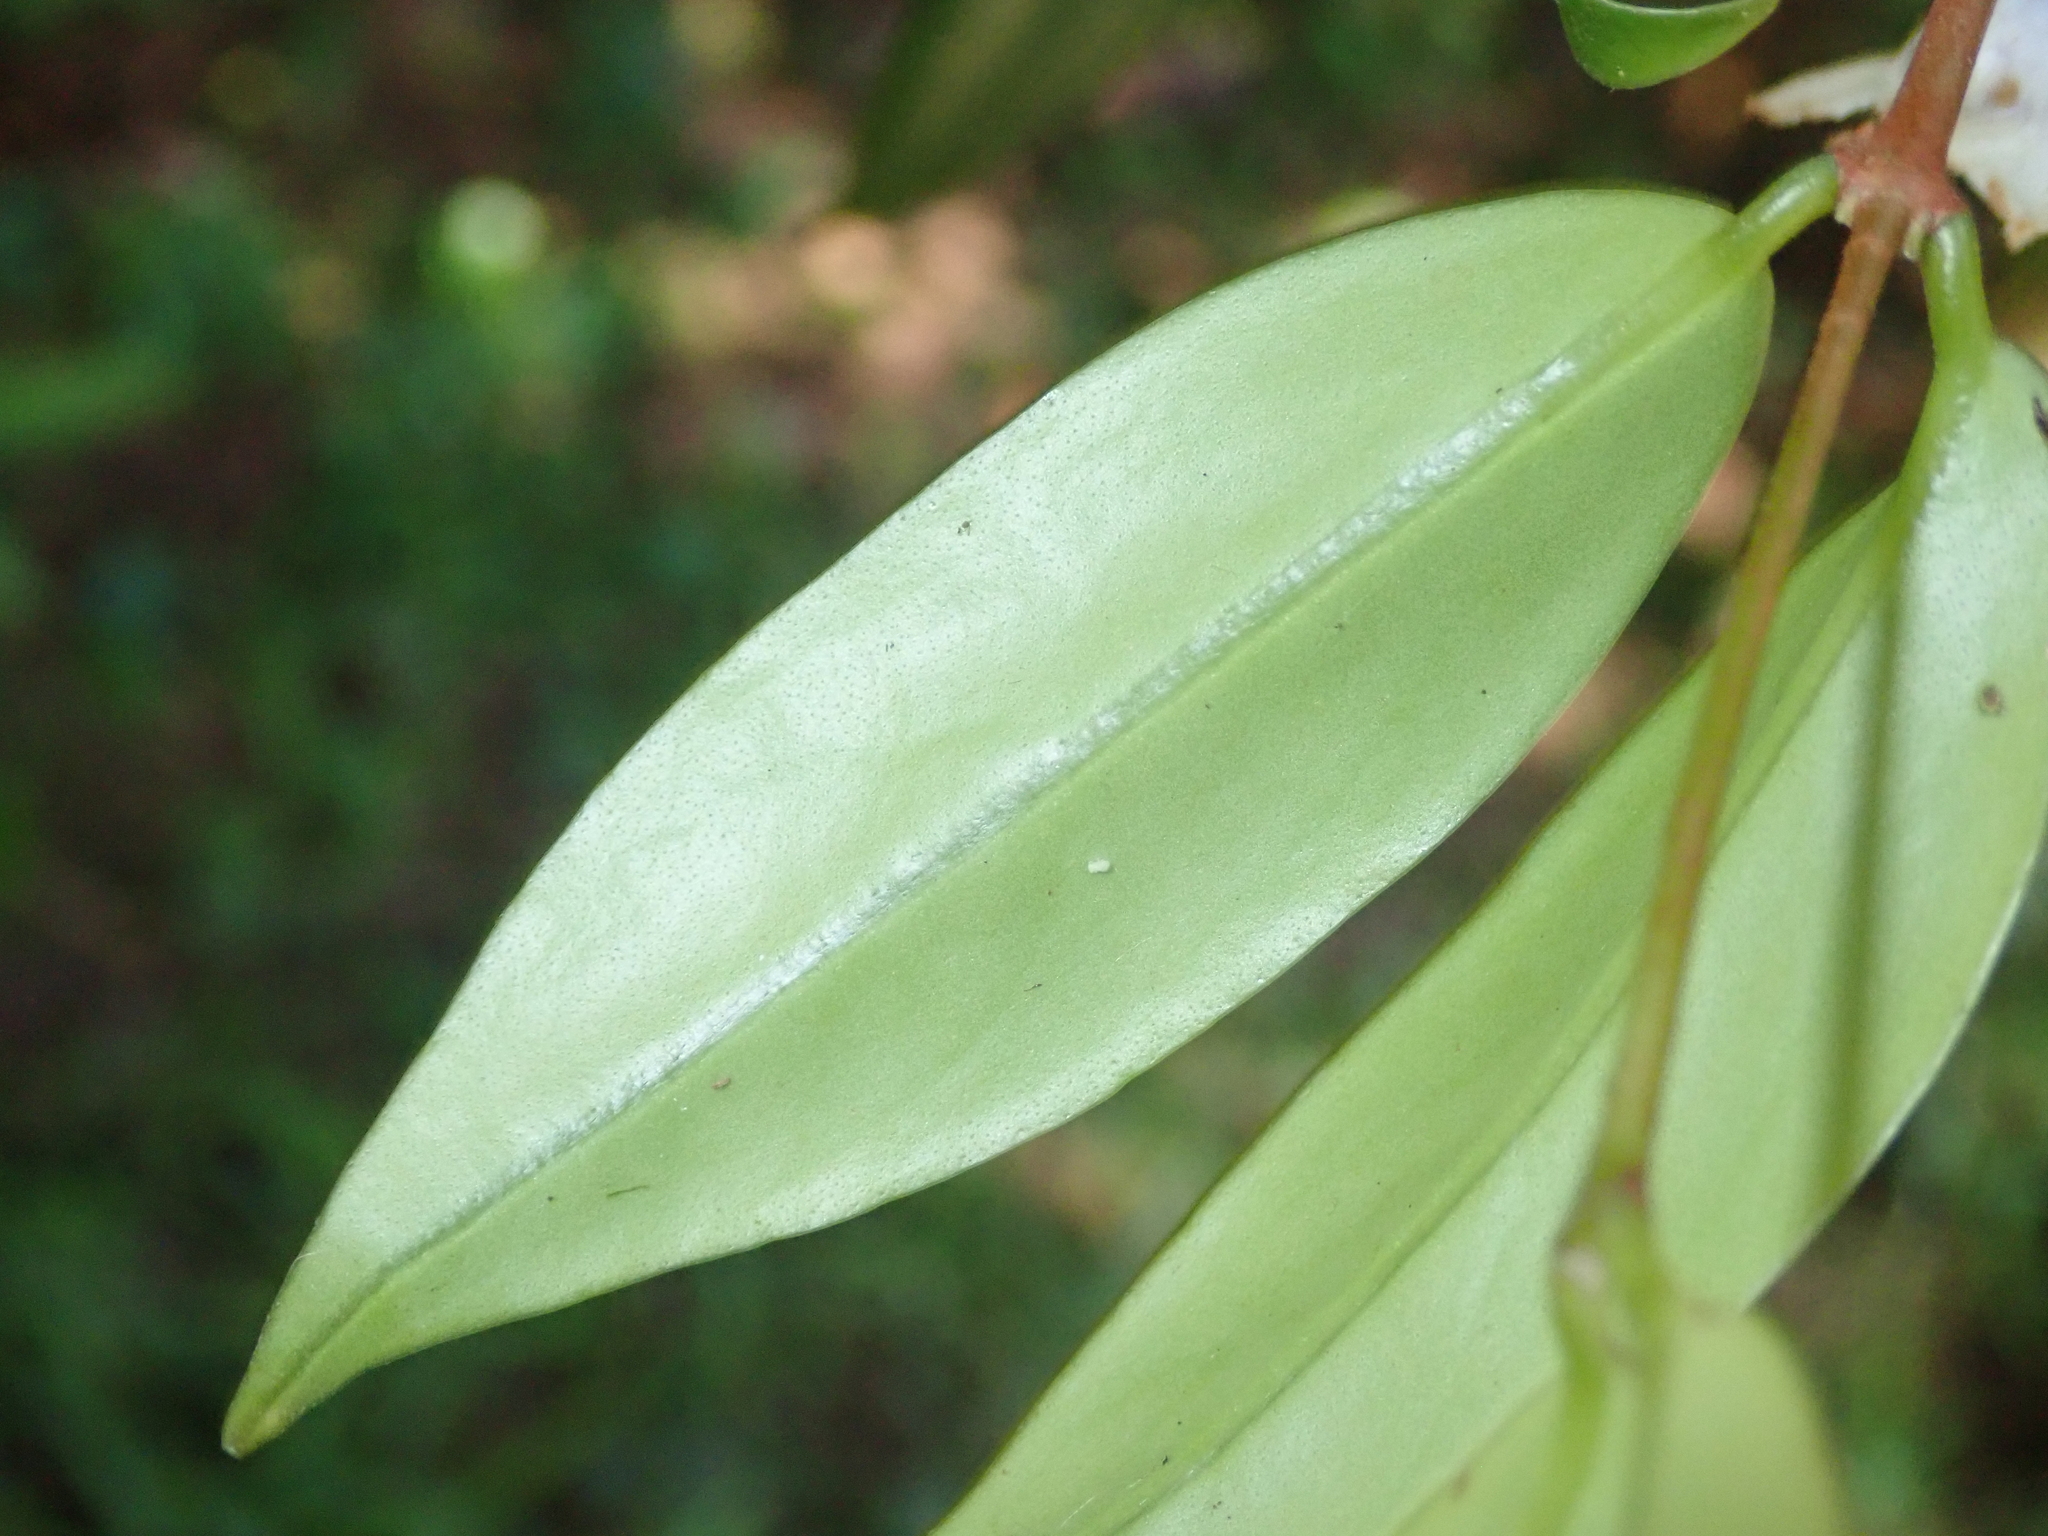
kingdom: Plantae
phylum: Tracheophyta
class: Magnoliopsida
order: Lamiales
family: Gesneriaceae
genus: Codonanthe
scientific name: Codonanthe gracilis
